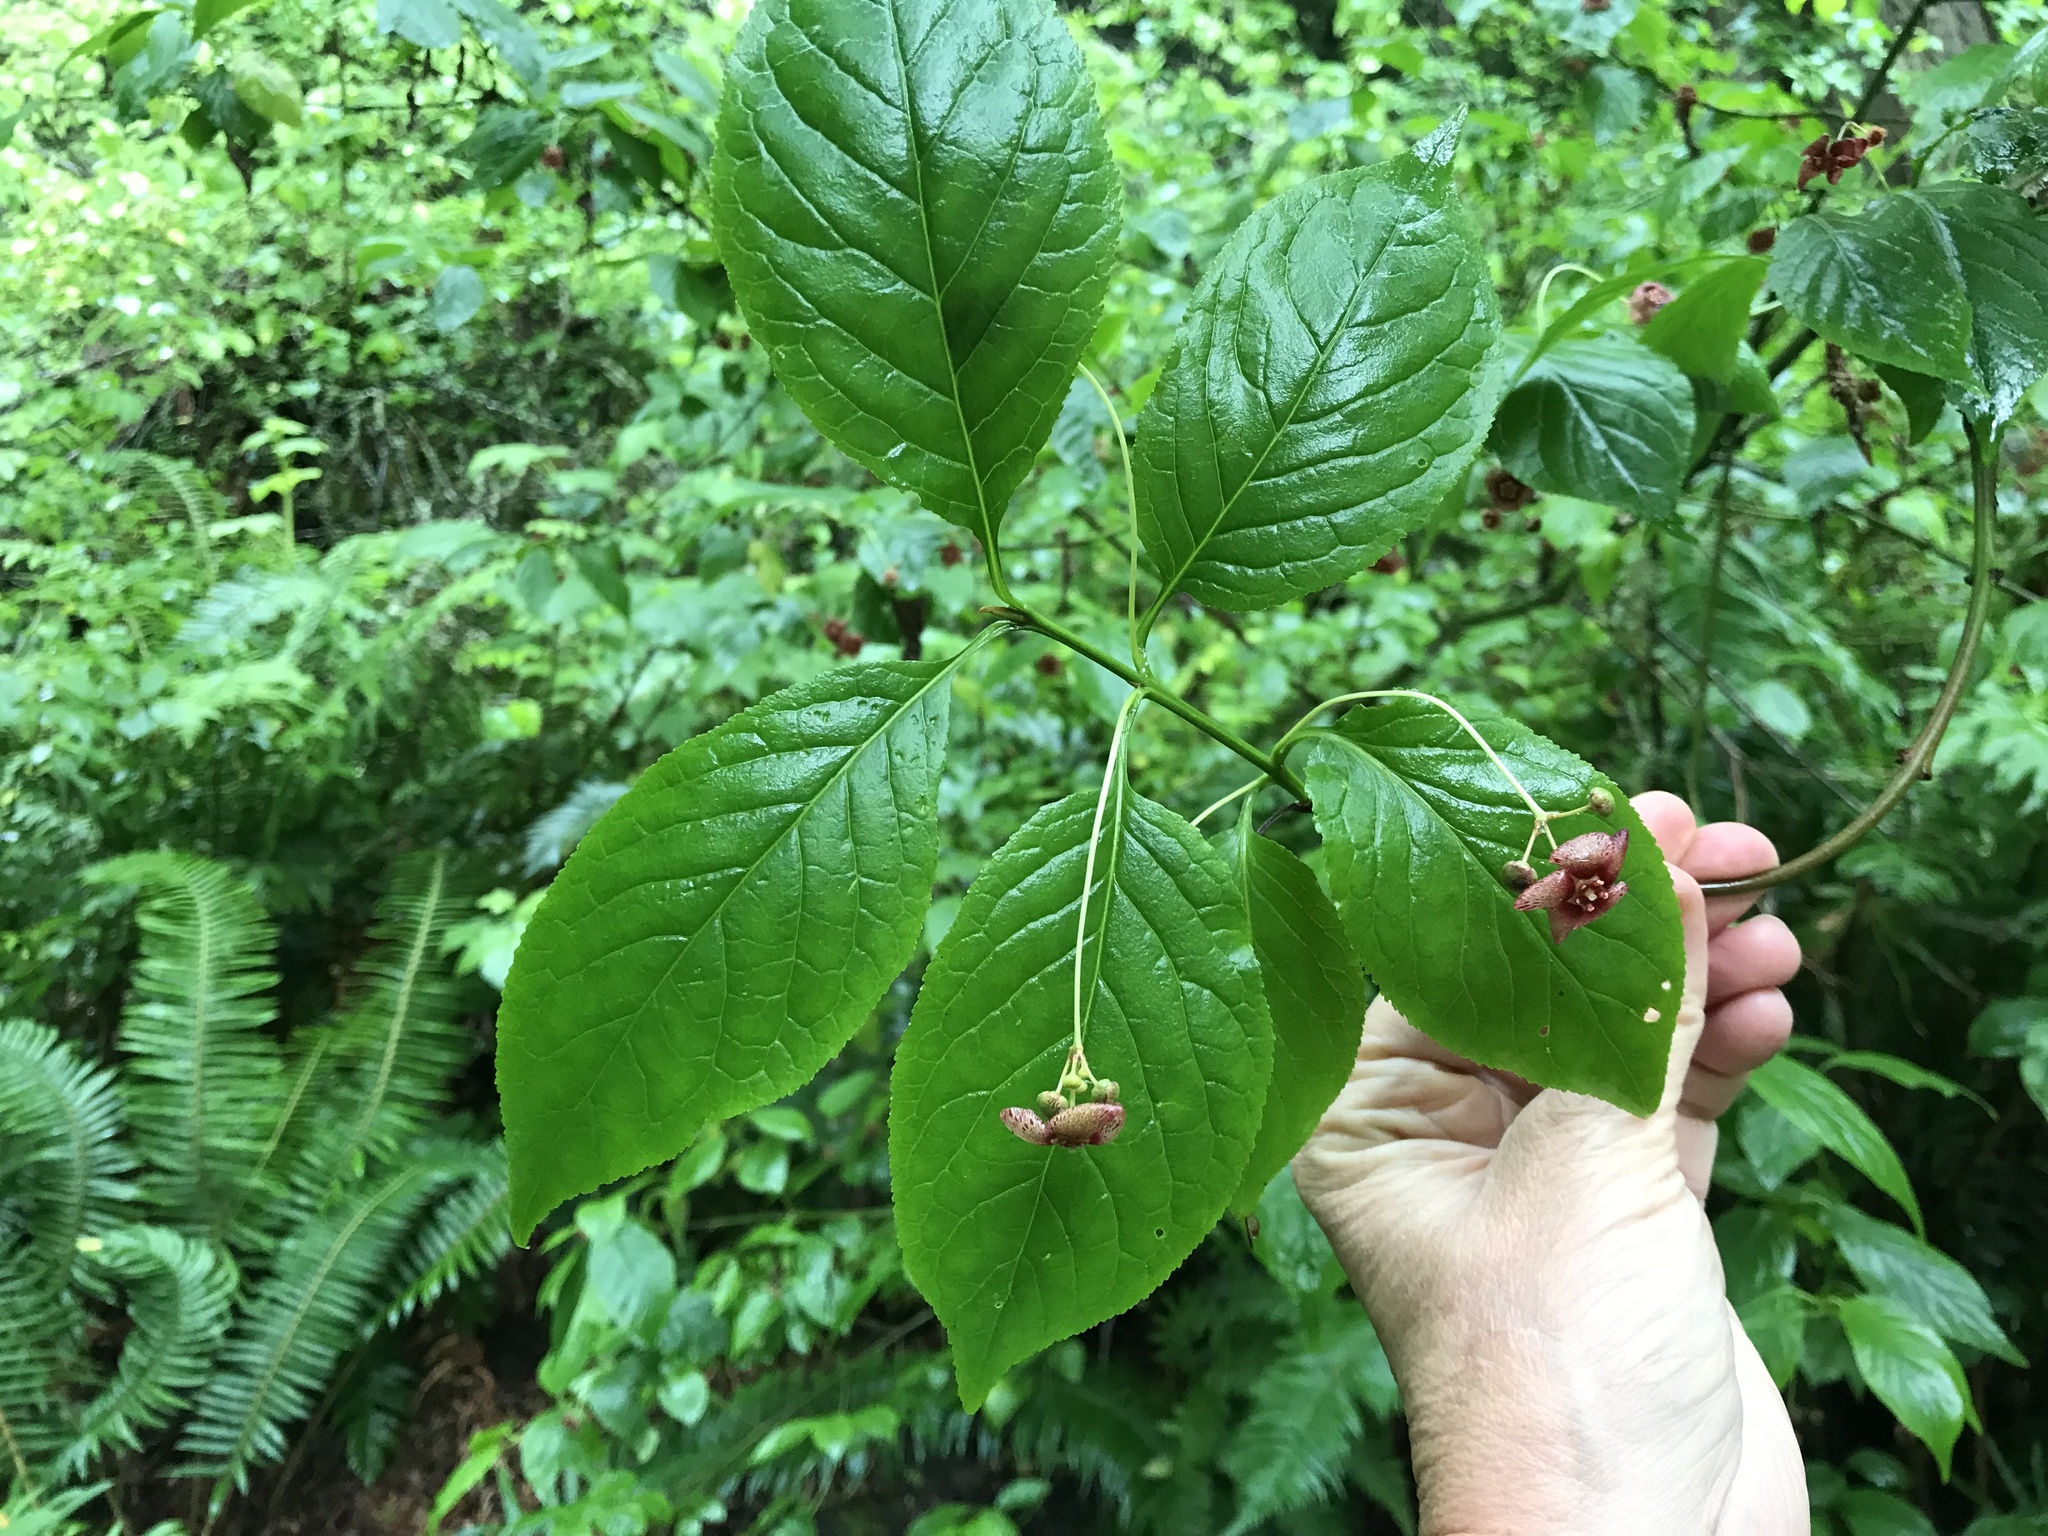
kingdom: Plantae
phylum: Tracheophyta
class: Magnoliopsida
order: Celastrales
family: Celastraceae
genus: Euonymus
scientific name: Euonymus occidentalis
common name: Western burningbush
